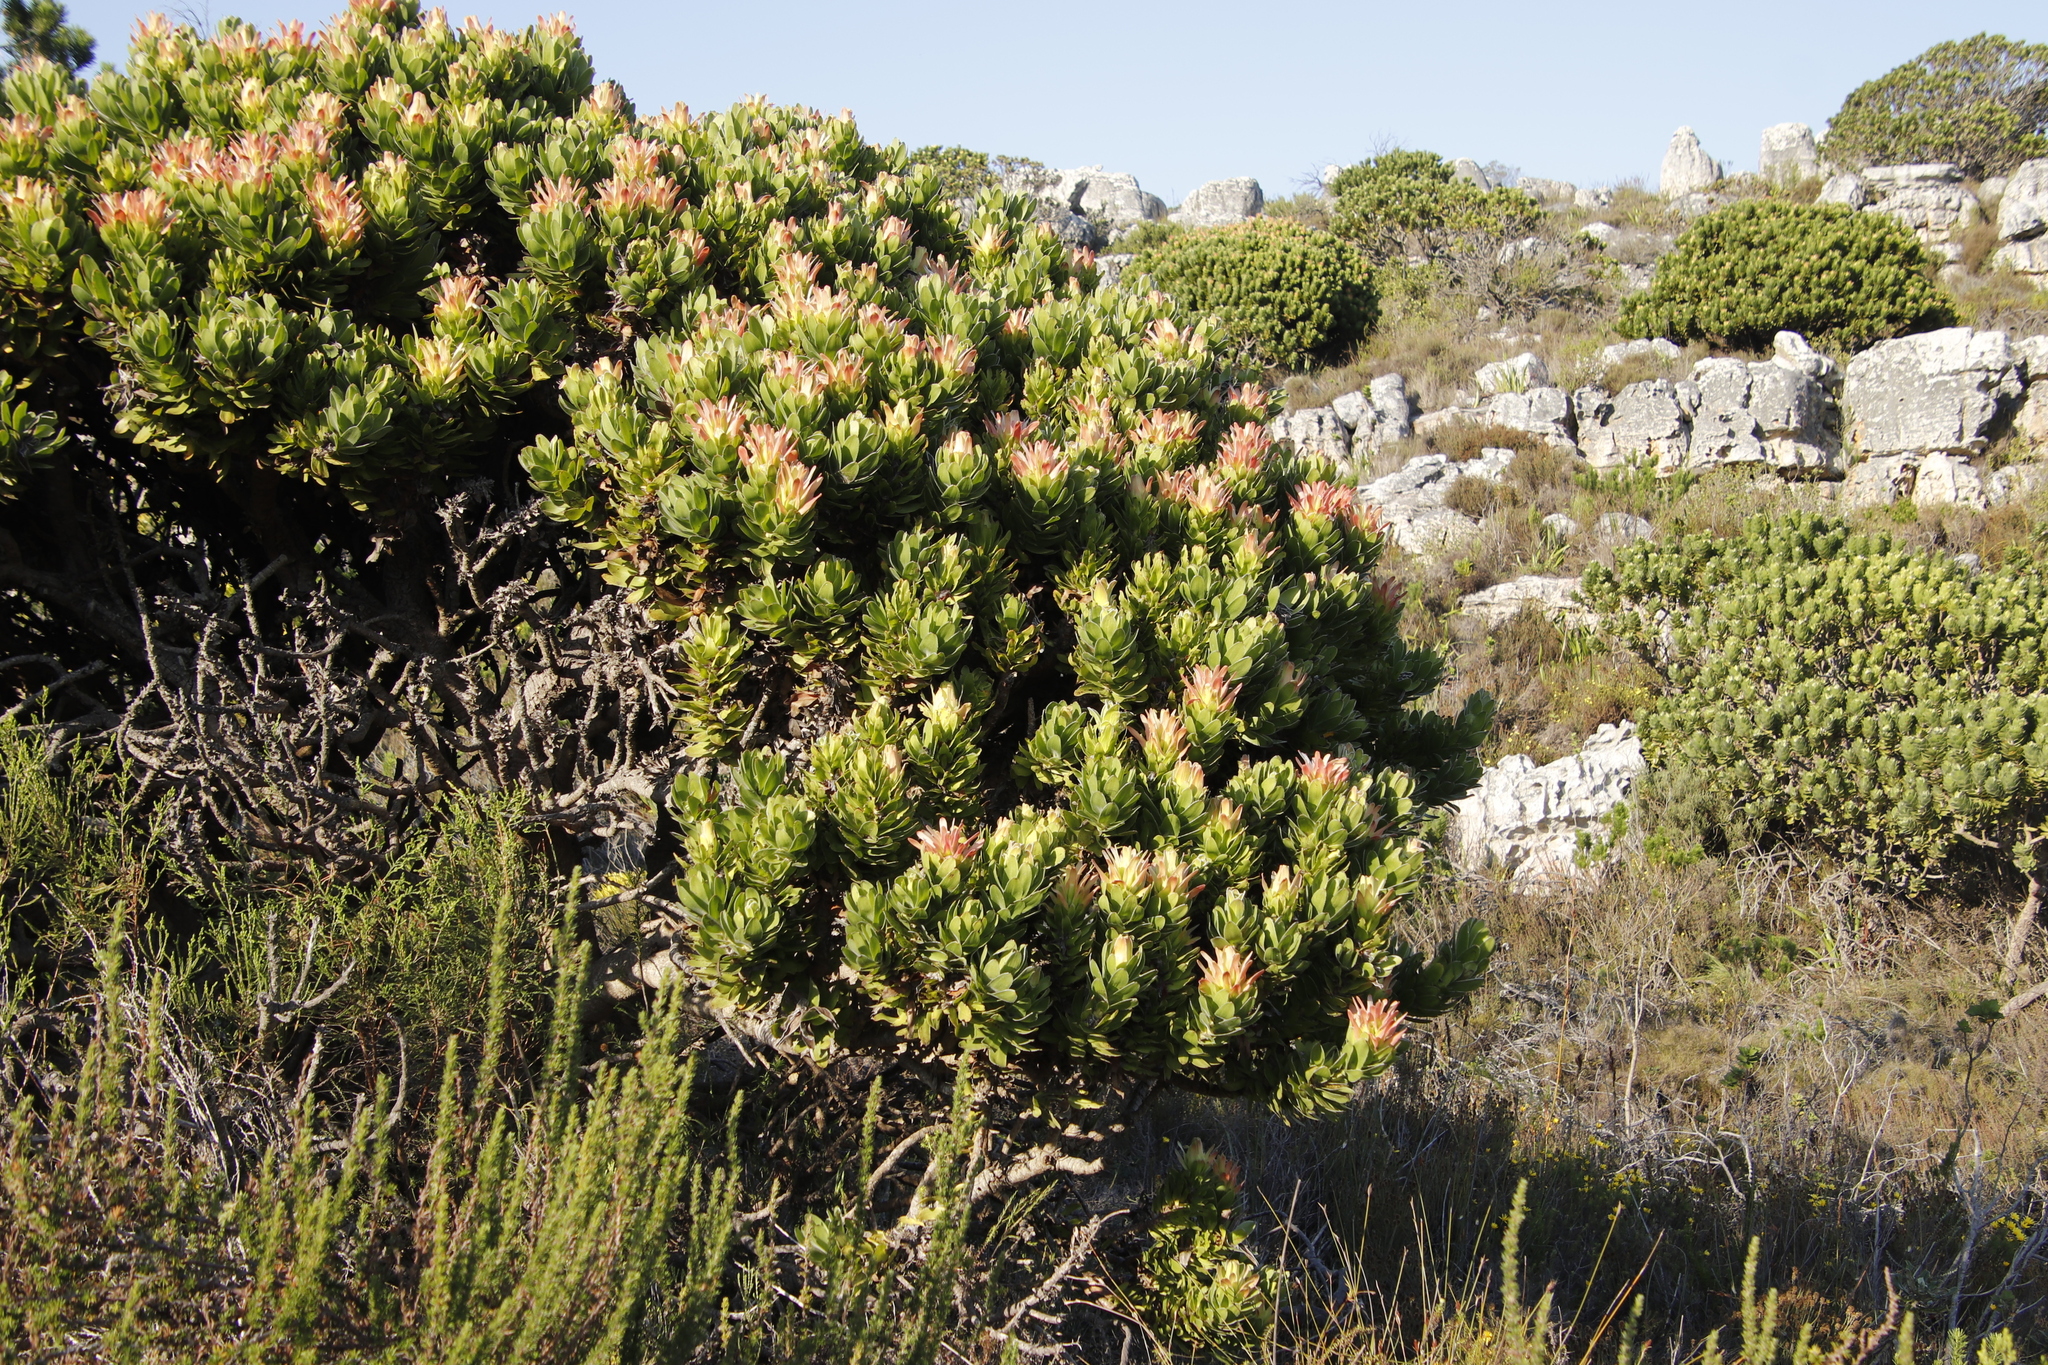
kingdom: Plantae
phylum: Tracheophyta
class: Magnoliopsida
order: Proteales
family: Proteaceae
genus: Mimetes
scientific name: Mimetes fimbriifolius
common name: Fringed bottlebrush
